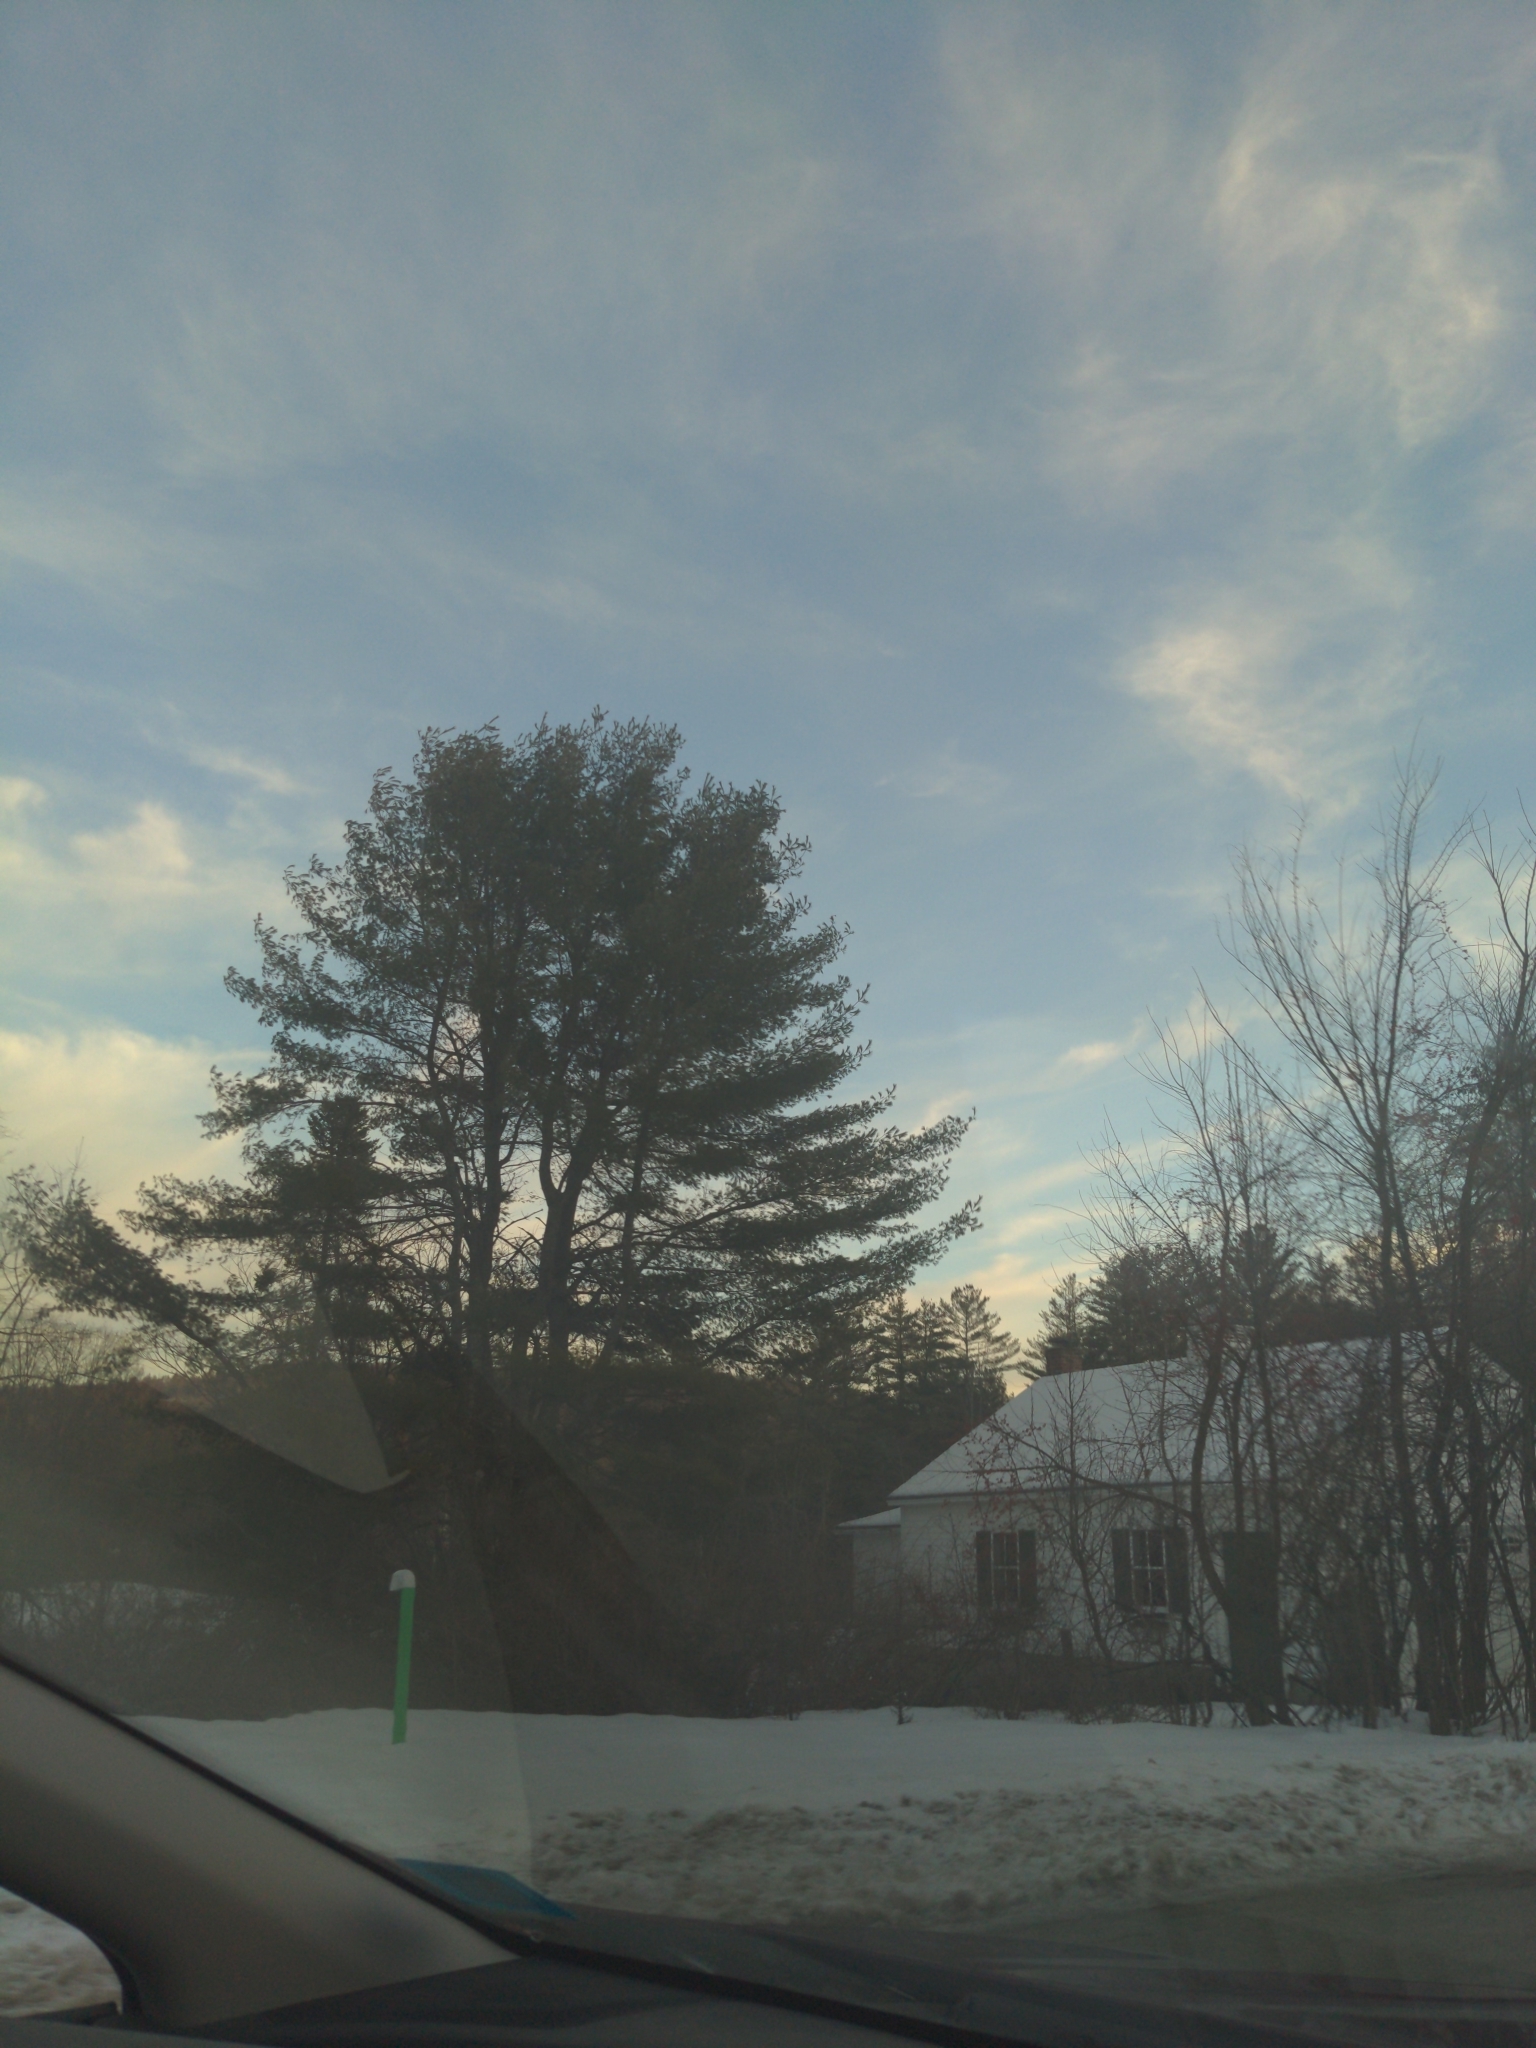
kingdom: Plantae
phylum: Tracheophyta
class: Pinopsida
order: Pinales
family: Pinaceae
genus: Pinus
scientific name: Pinus strobus
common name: Weymouth pine
